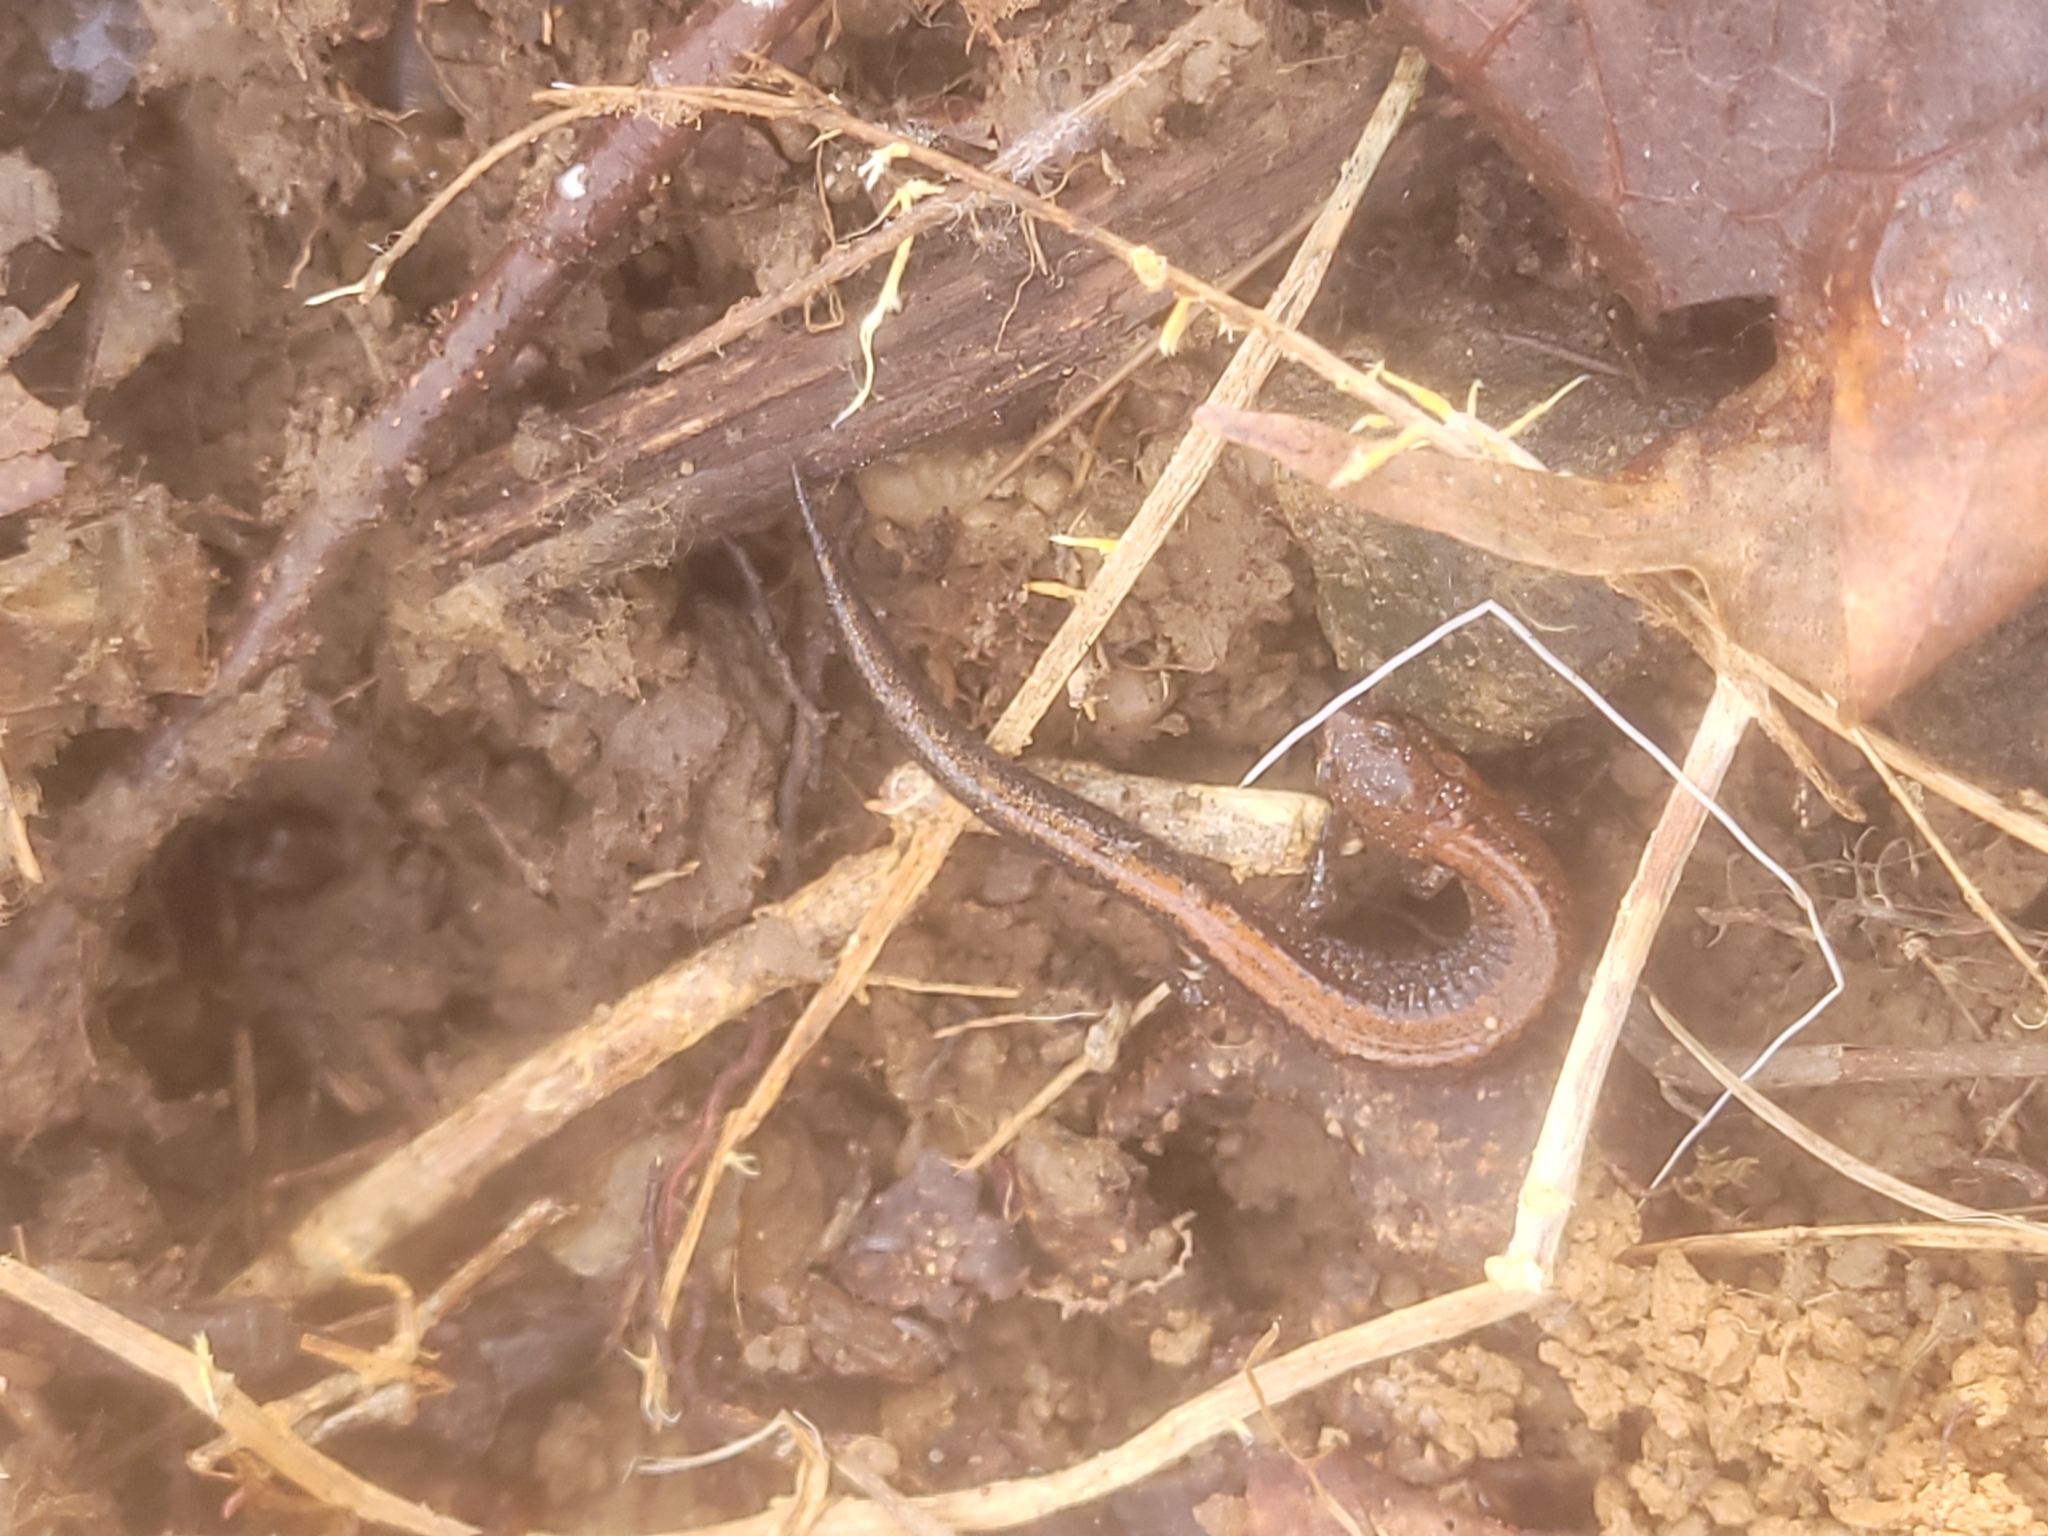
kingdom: Animalia
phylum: Chordata
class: Amphibia
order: Caudata
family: Plethodontidae
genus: Plethodon
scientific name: Plethodon cinereus
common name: Redback salamander
